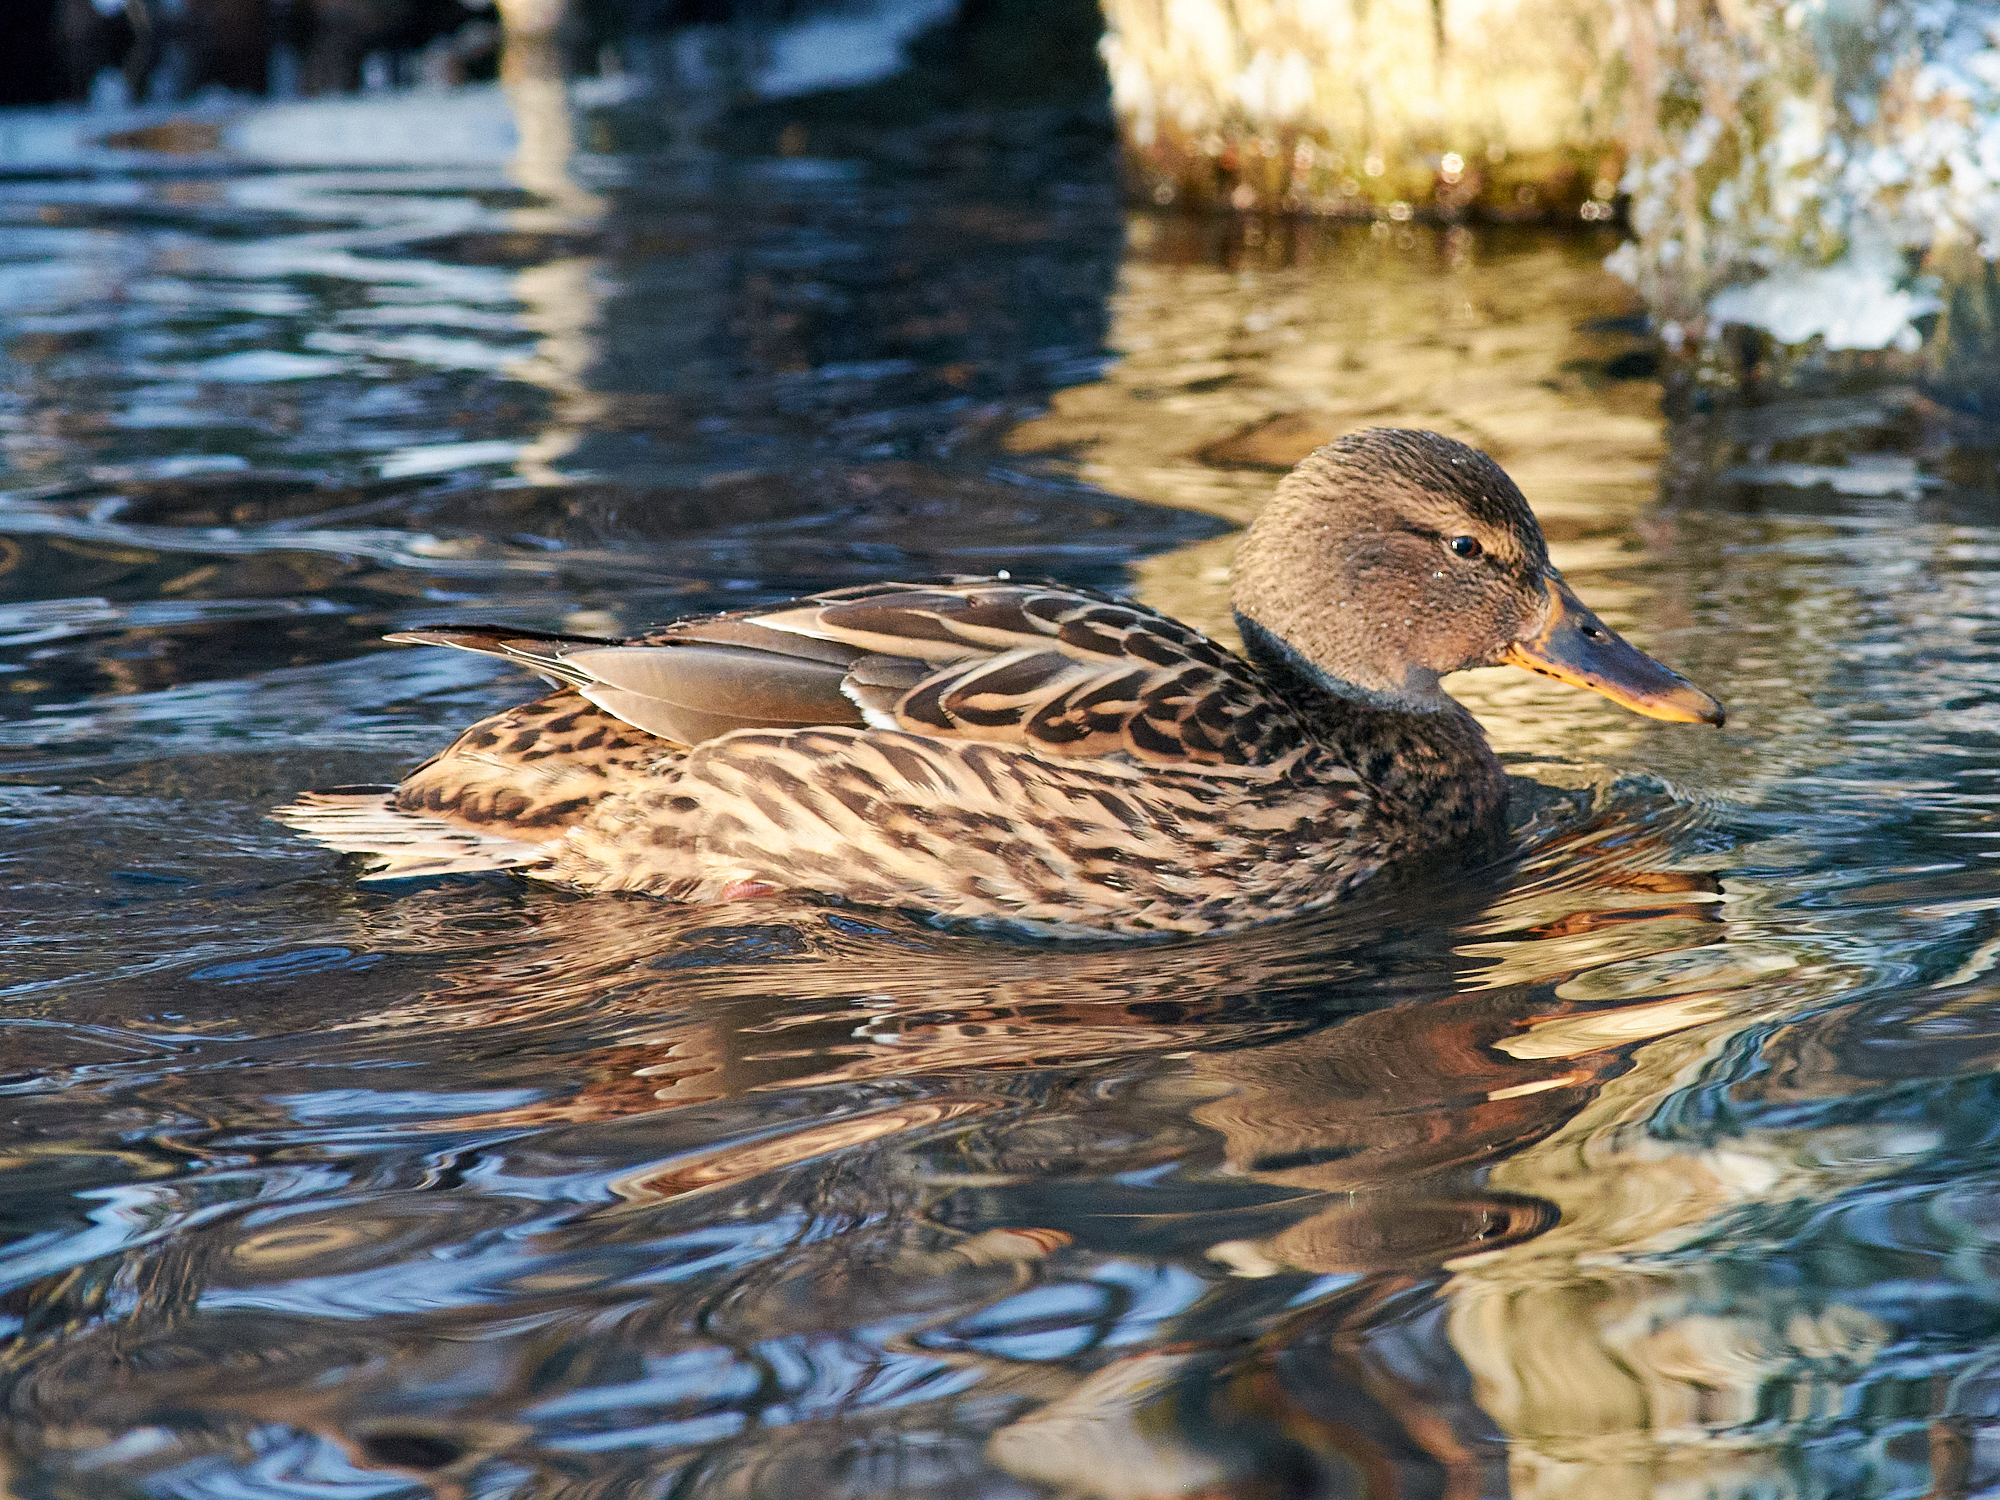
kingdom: Animalia
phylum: Chordata
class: Aves
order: Anseriformes
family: Anatidae
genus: Anas
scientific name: Anas platyrhynchos
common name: Mallard
